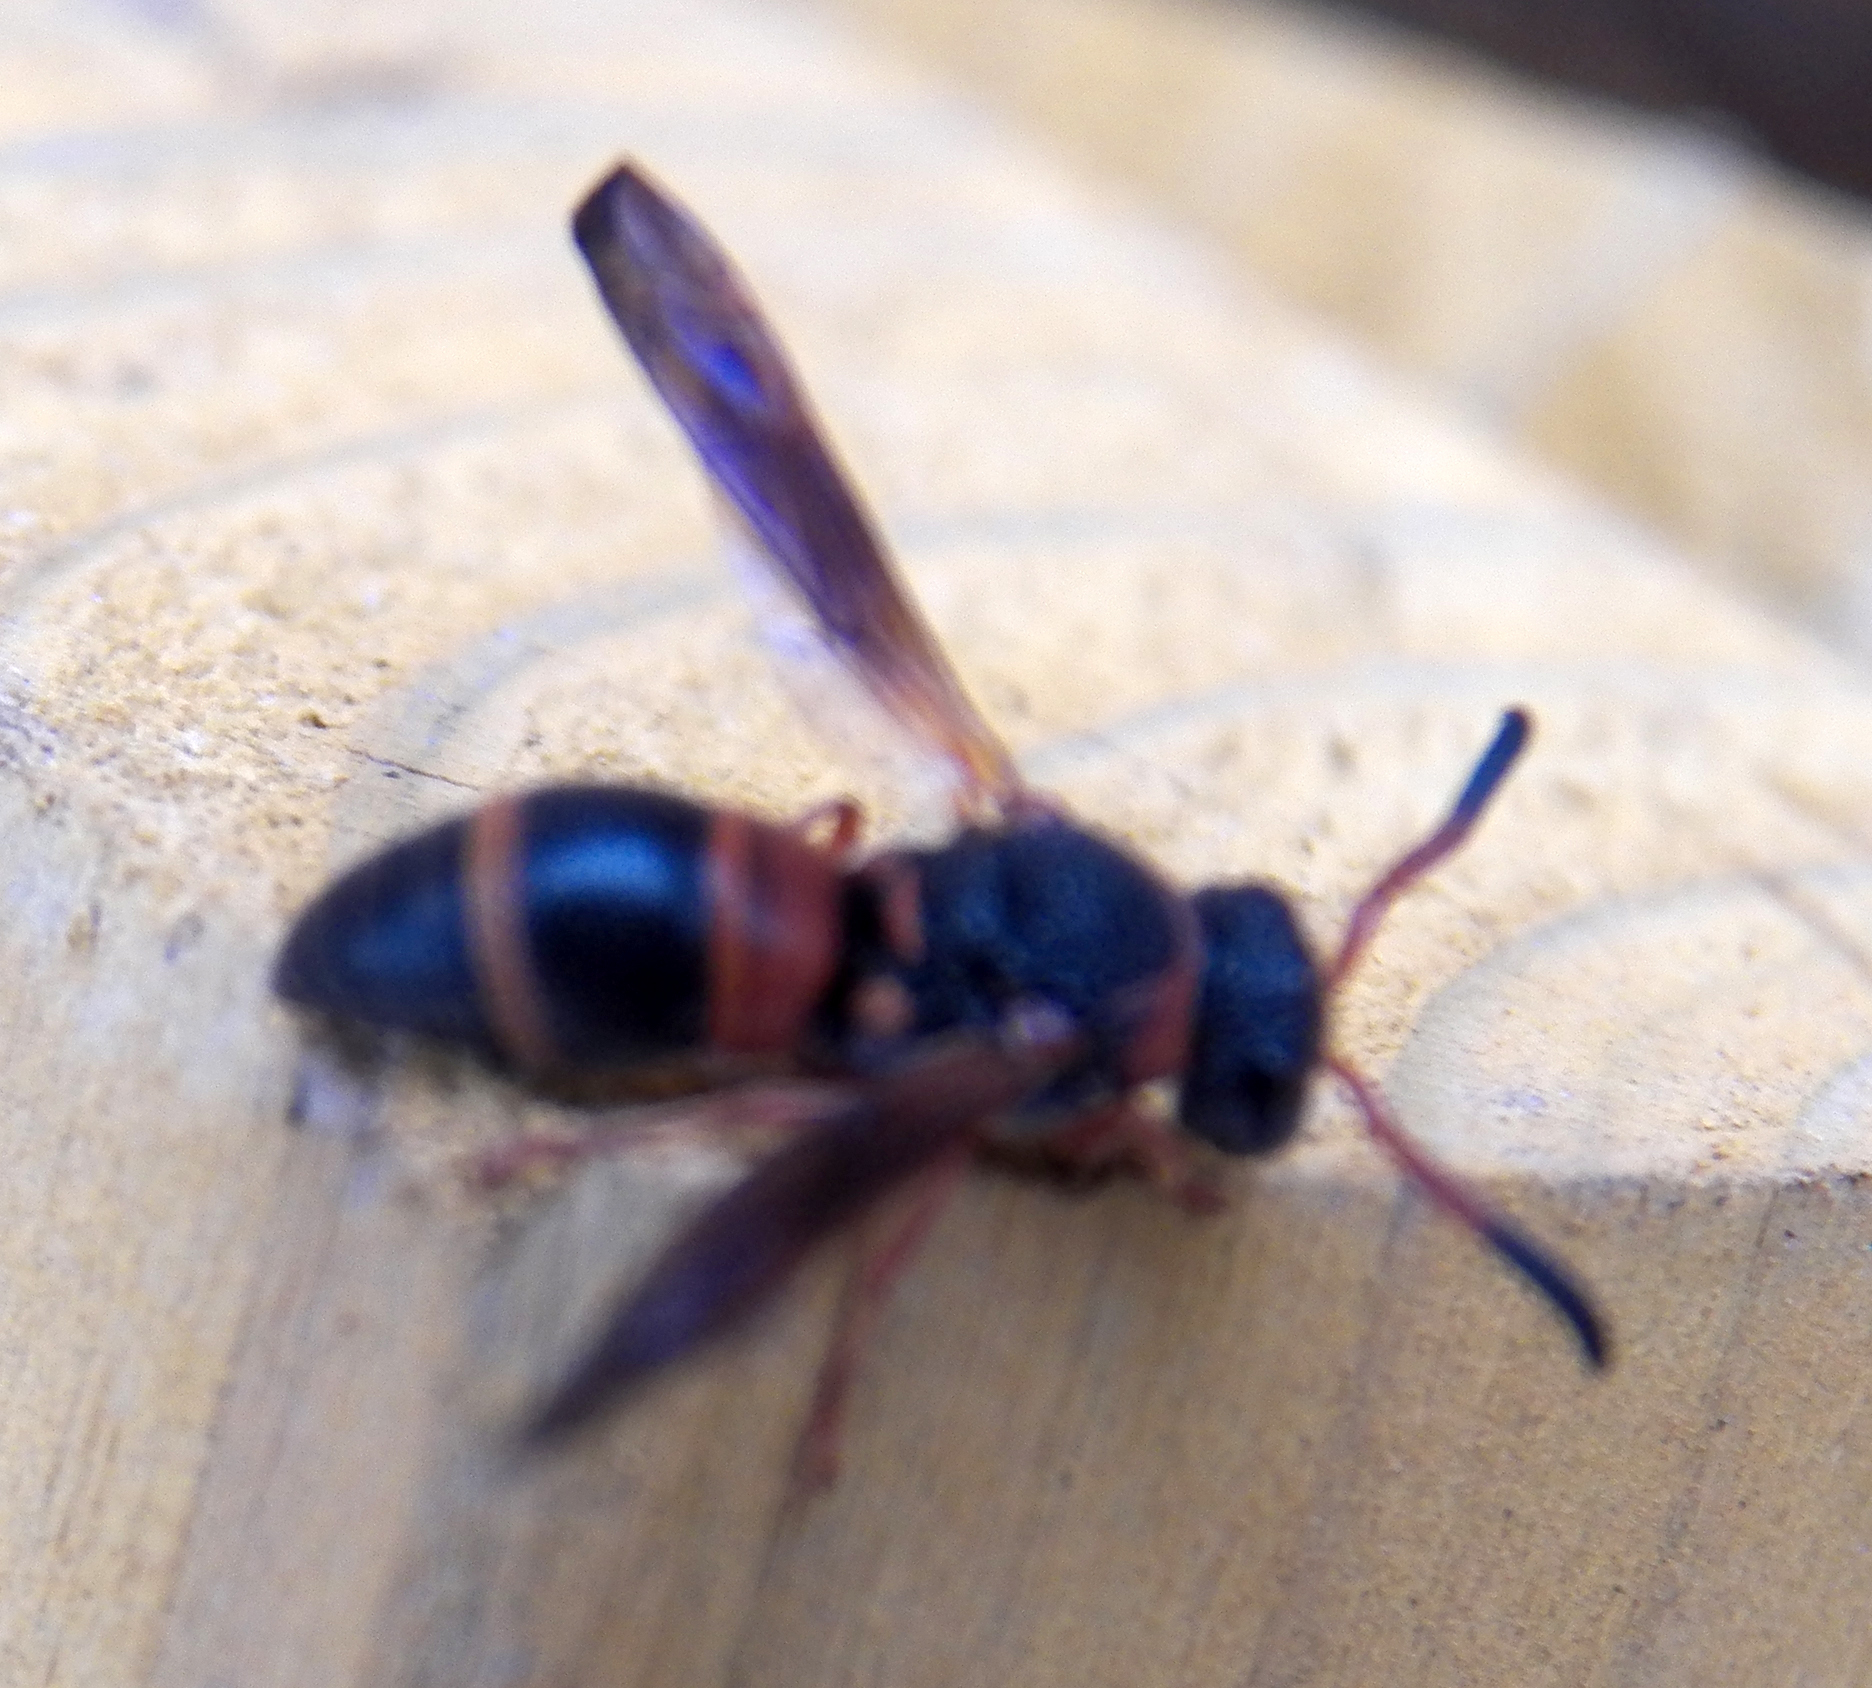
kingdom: Animalia
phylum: Arthropoda
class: Insecta
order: Hymenoptera
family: Eumenidae
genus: Pachodynerus
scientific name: Pachodynerus erynnis
